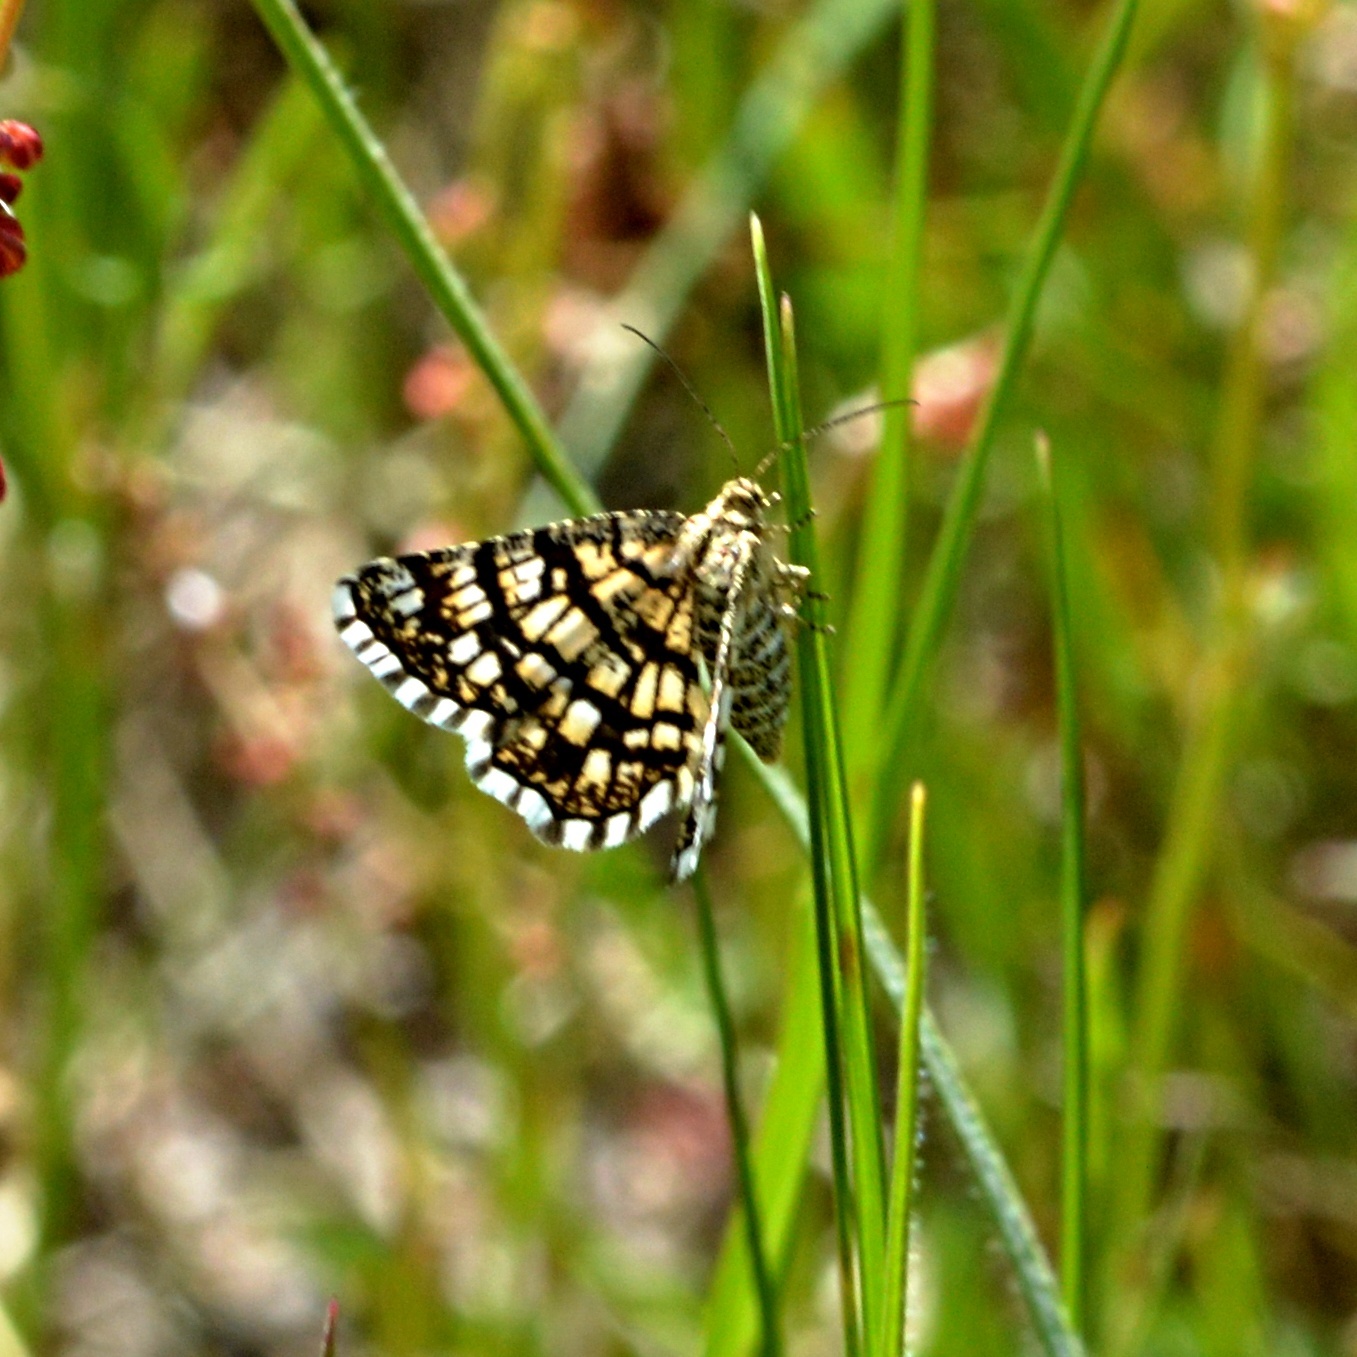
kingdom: Animalia
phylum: Arthropoda
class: Insecta
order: Lepidoptera
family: Geometridae
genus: Chiasmia
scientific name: Chiasmia clathrata
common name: Latticed heath
